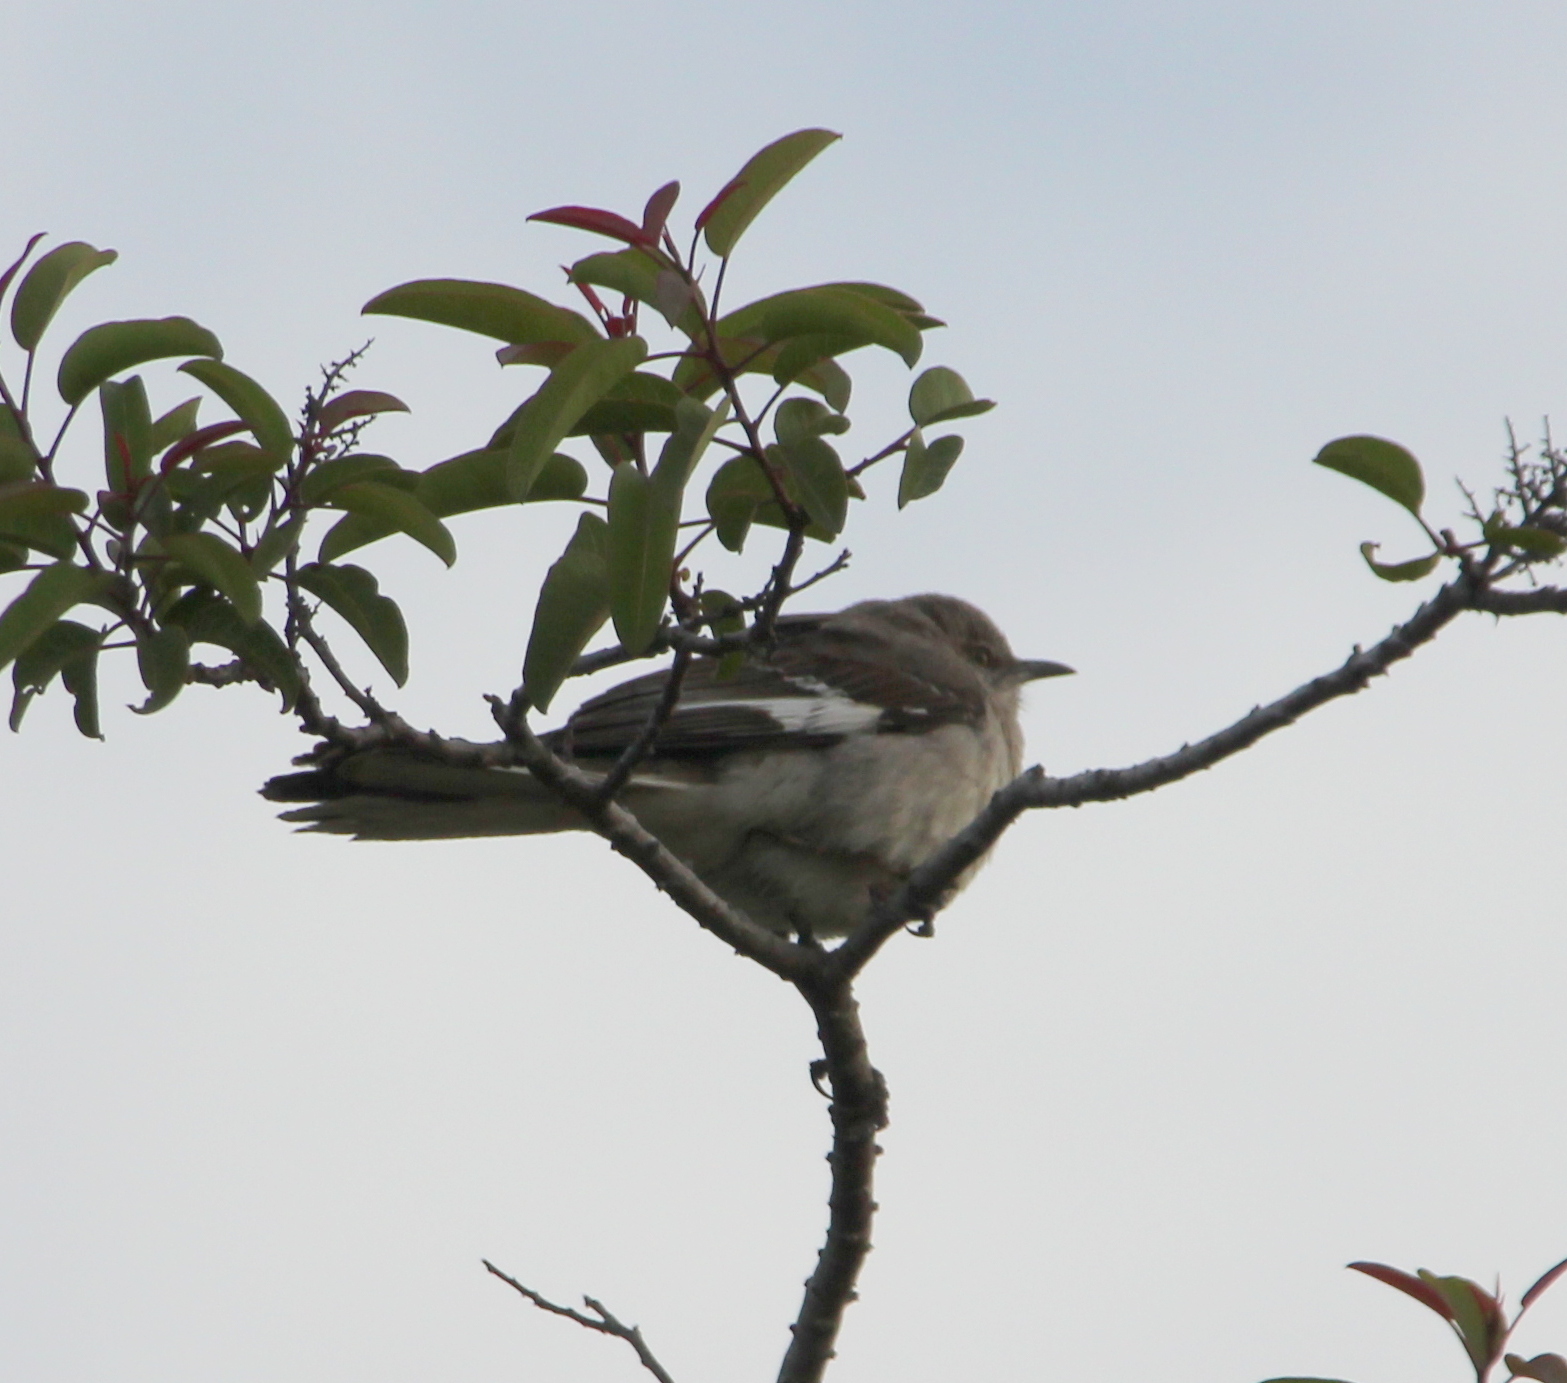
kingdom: Animalia
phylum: Chordata
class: Aves
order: Passeriformes
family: Mimidae
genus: Mimus
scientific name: Mimus polyglottos
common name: Northern mockingbird
